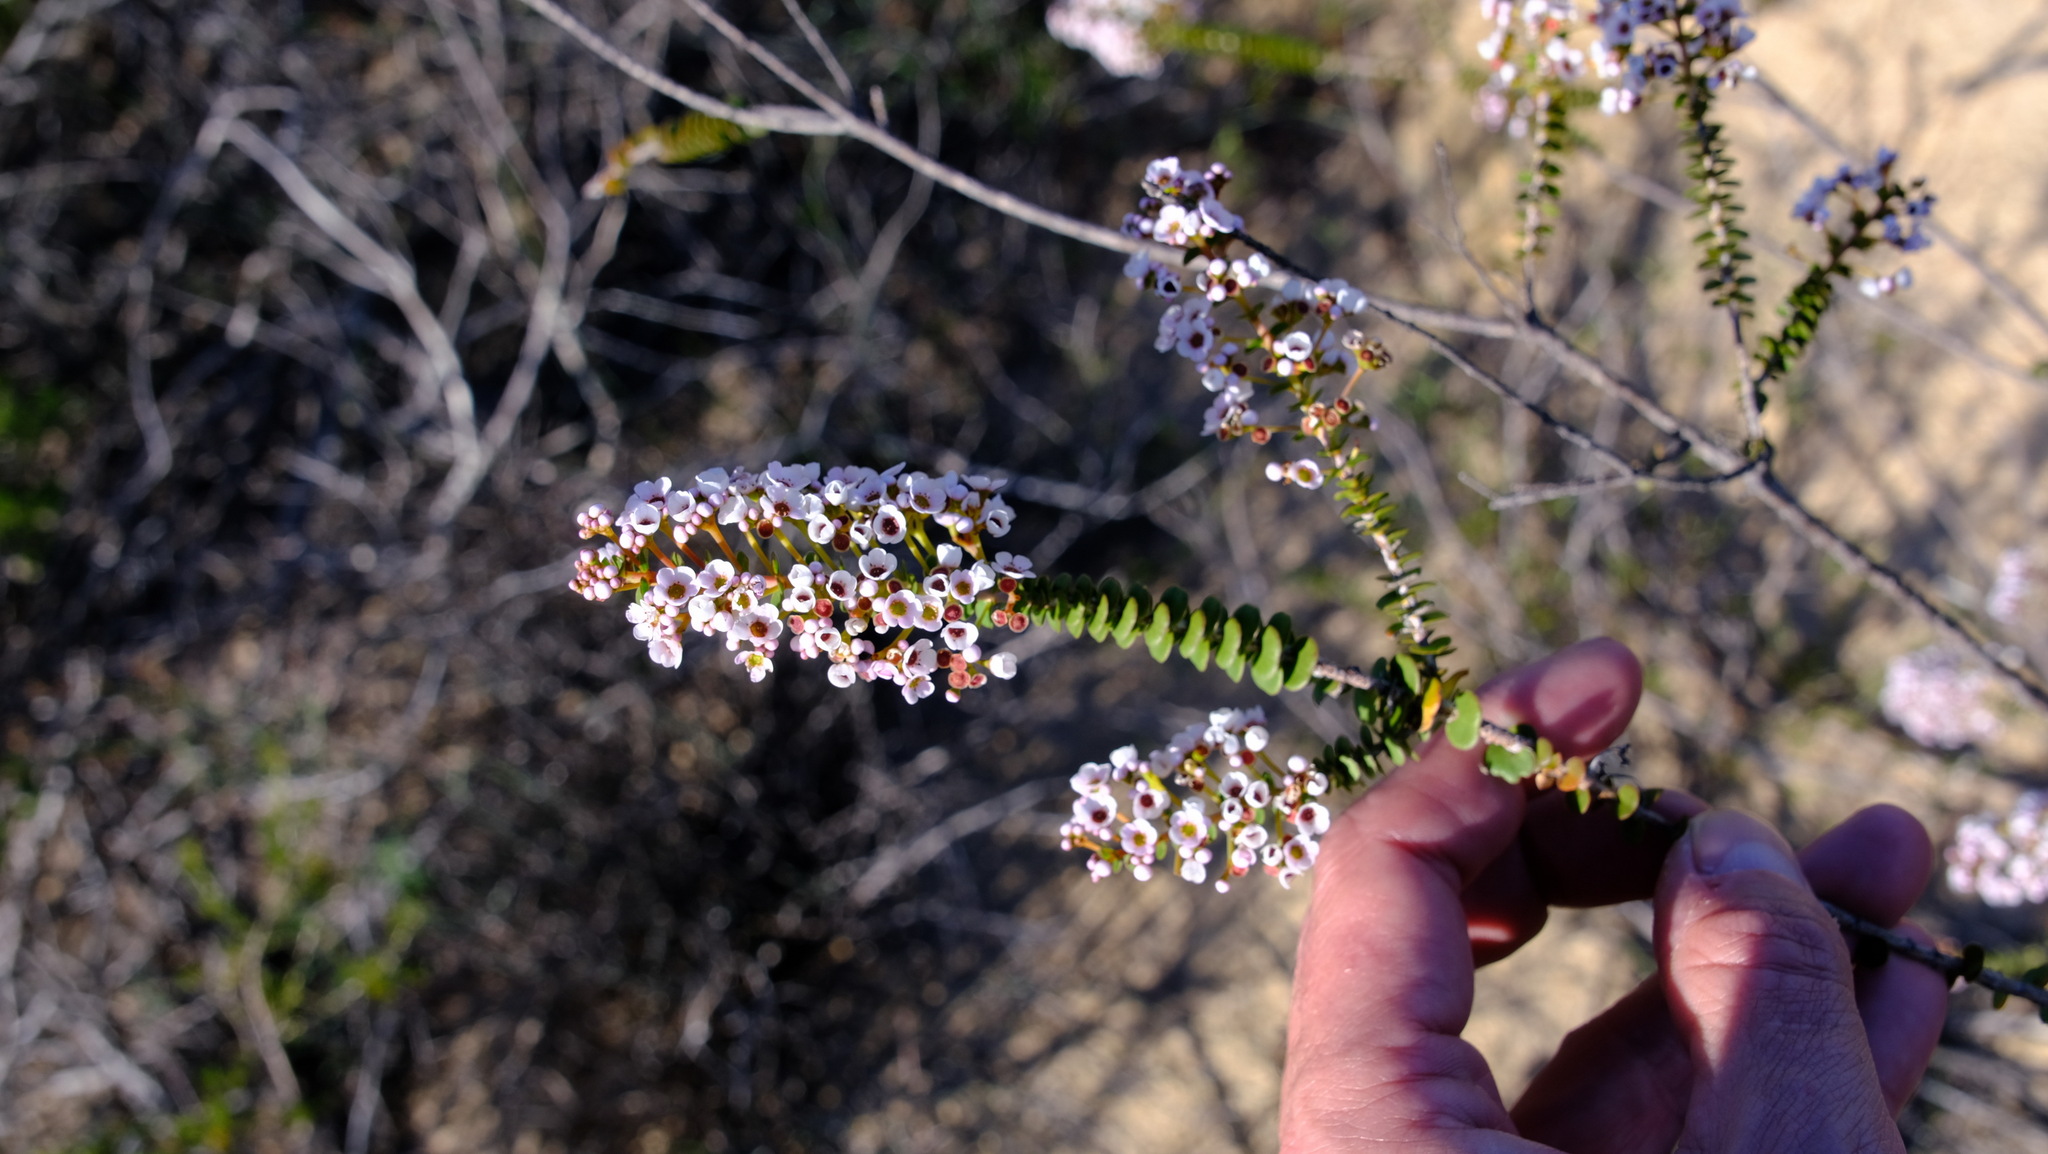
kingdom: Plantae
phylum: Tracheophyta
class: Magnoliopsida
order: Myrtales
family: Myrtaceae
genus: Scholtzia
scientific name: Scholtzia uberiflora
